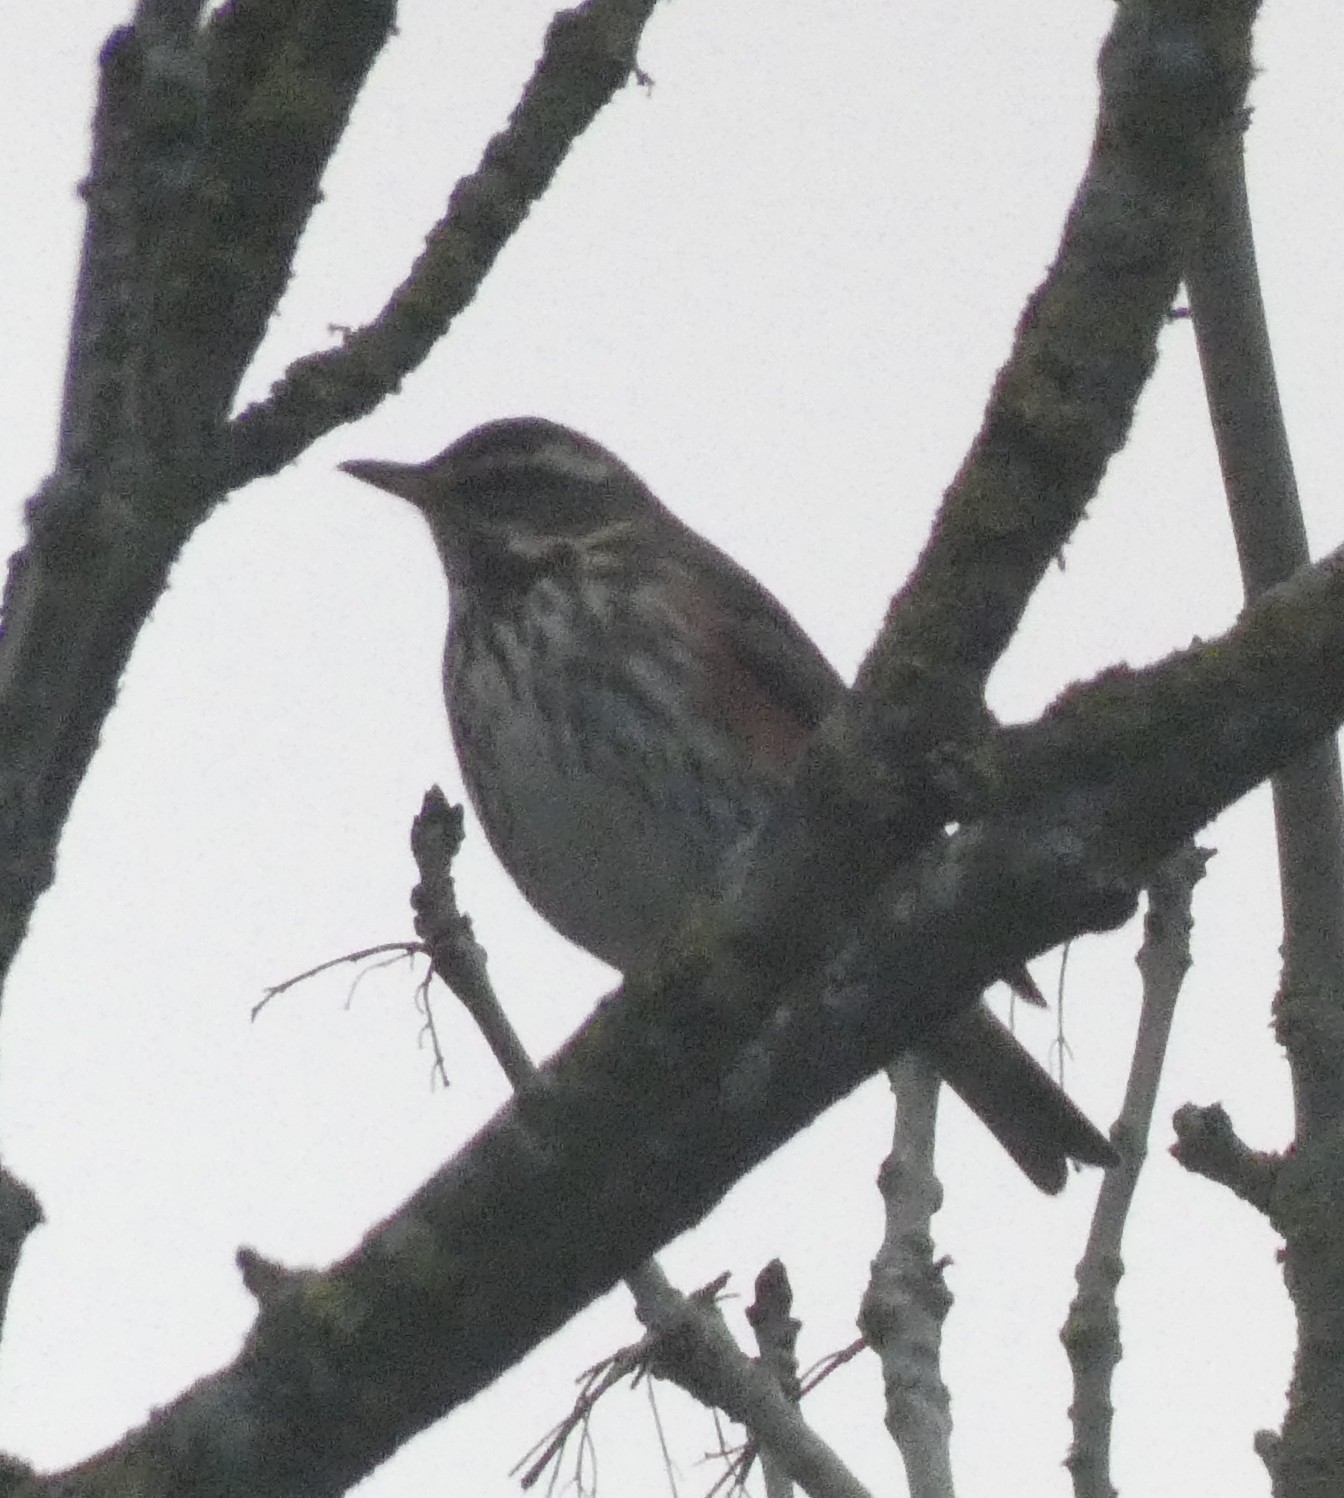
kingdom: Animalia
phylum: Chordata
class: Aves
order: Passeriformes
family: Turdidae
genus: Turdus
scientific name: Turdus iliacus
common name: Redwing
